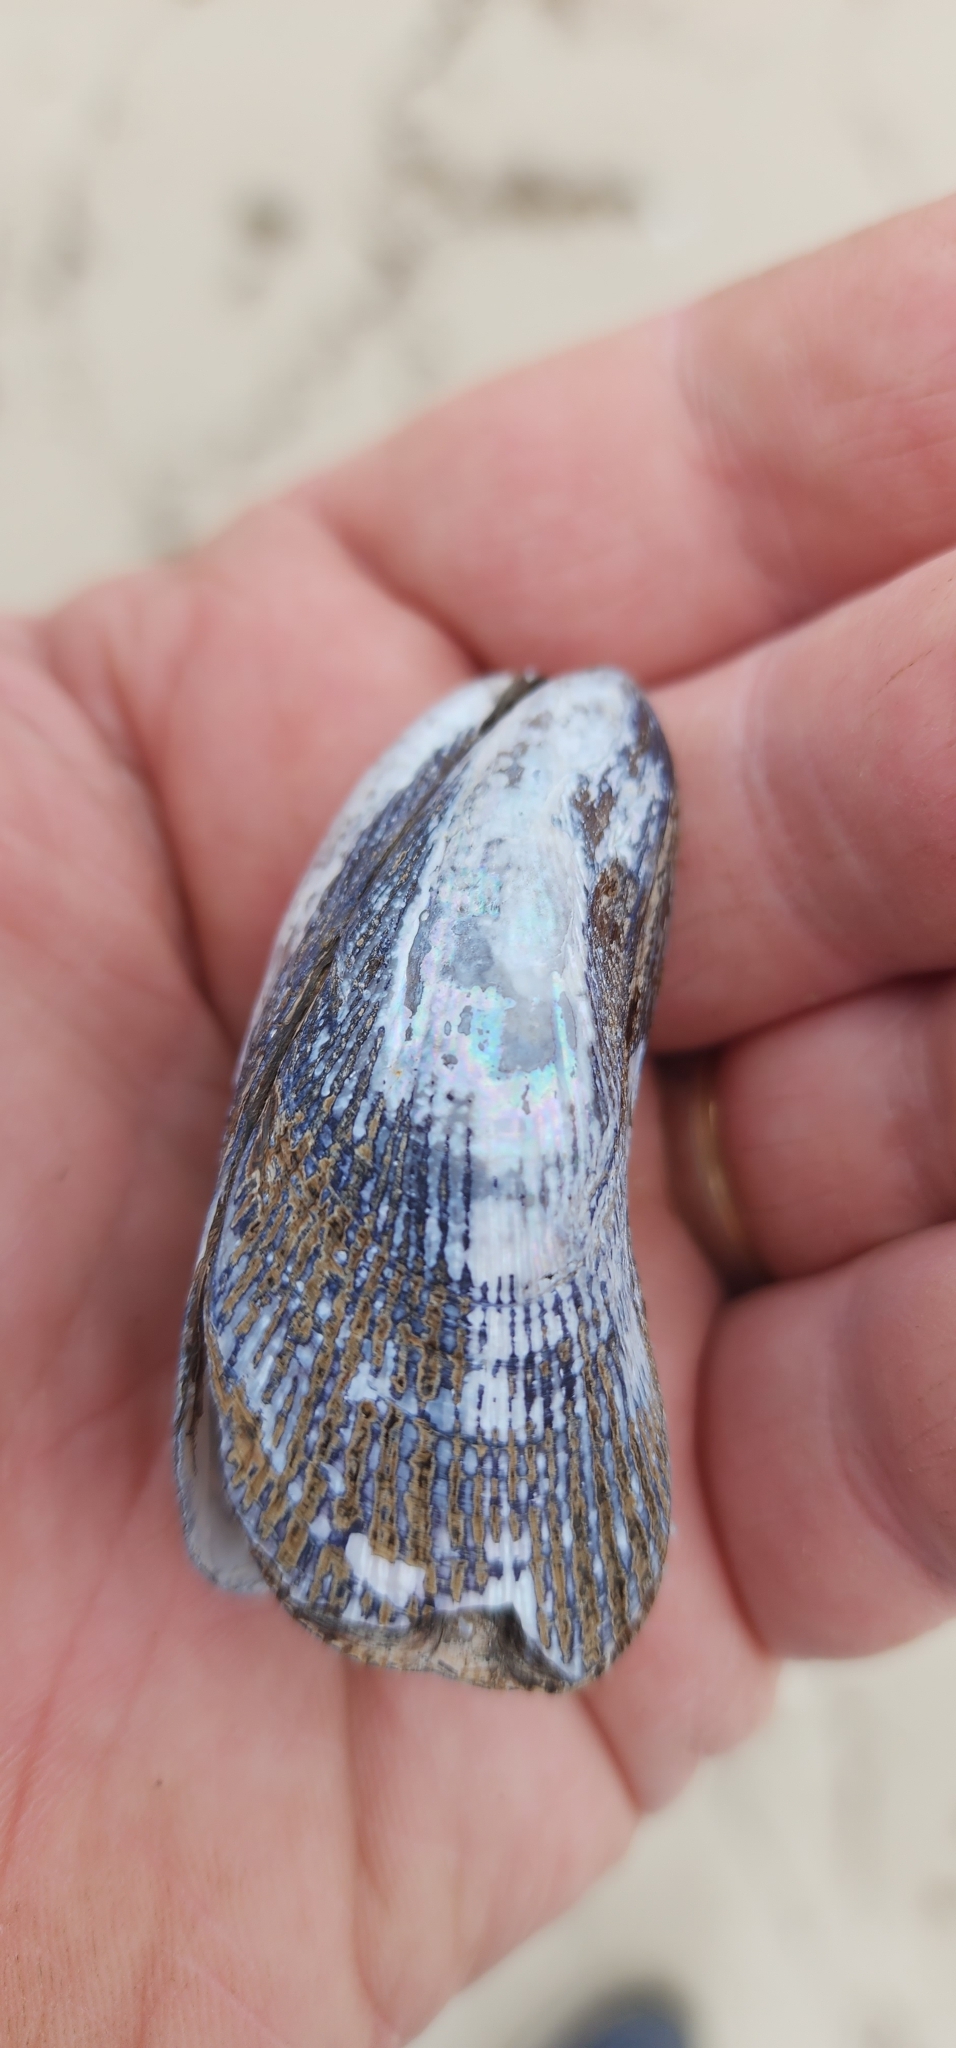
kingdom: Animalia
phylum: Mollusca
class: Bivalvia
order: Mytilida
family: Mytilidae
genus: Geukensia
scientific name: Geukensia demissa
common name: Ribbed mussel
